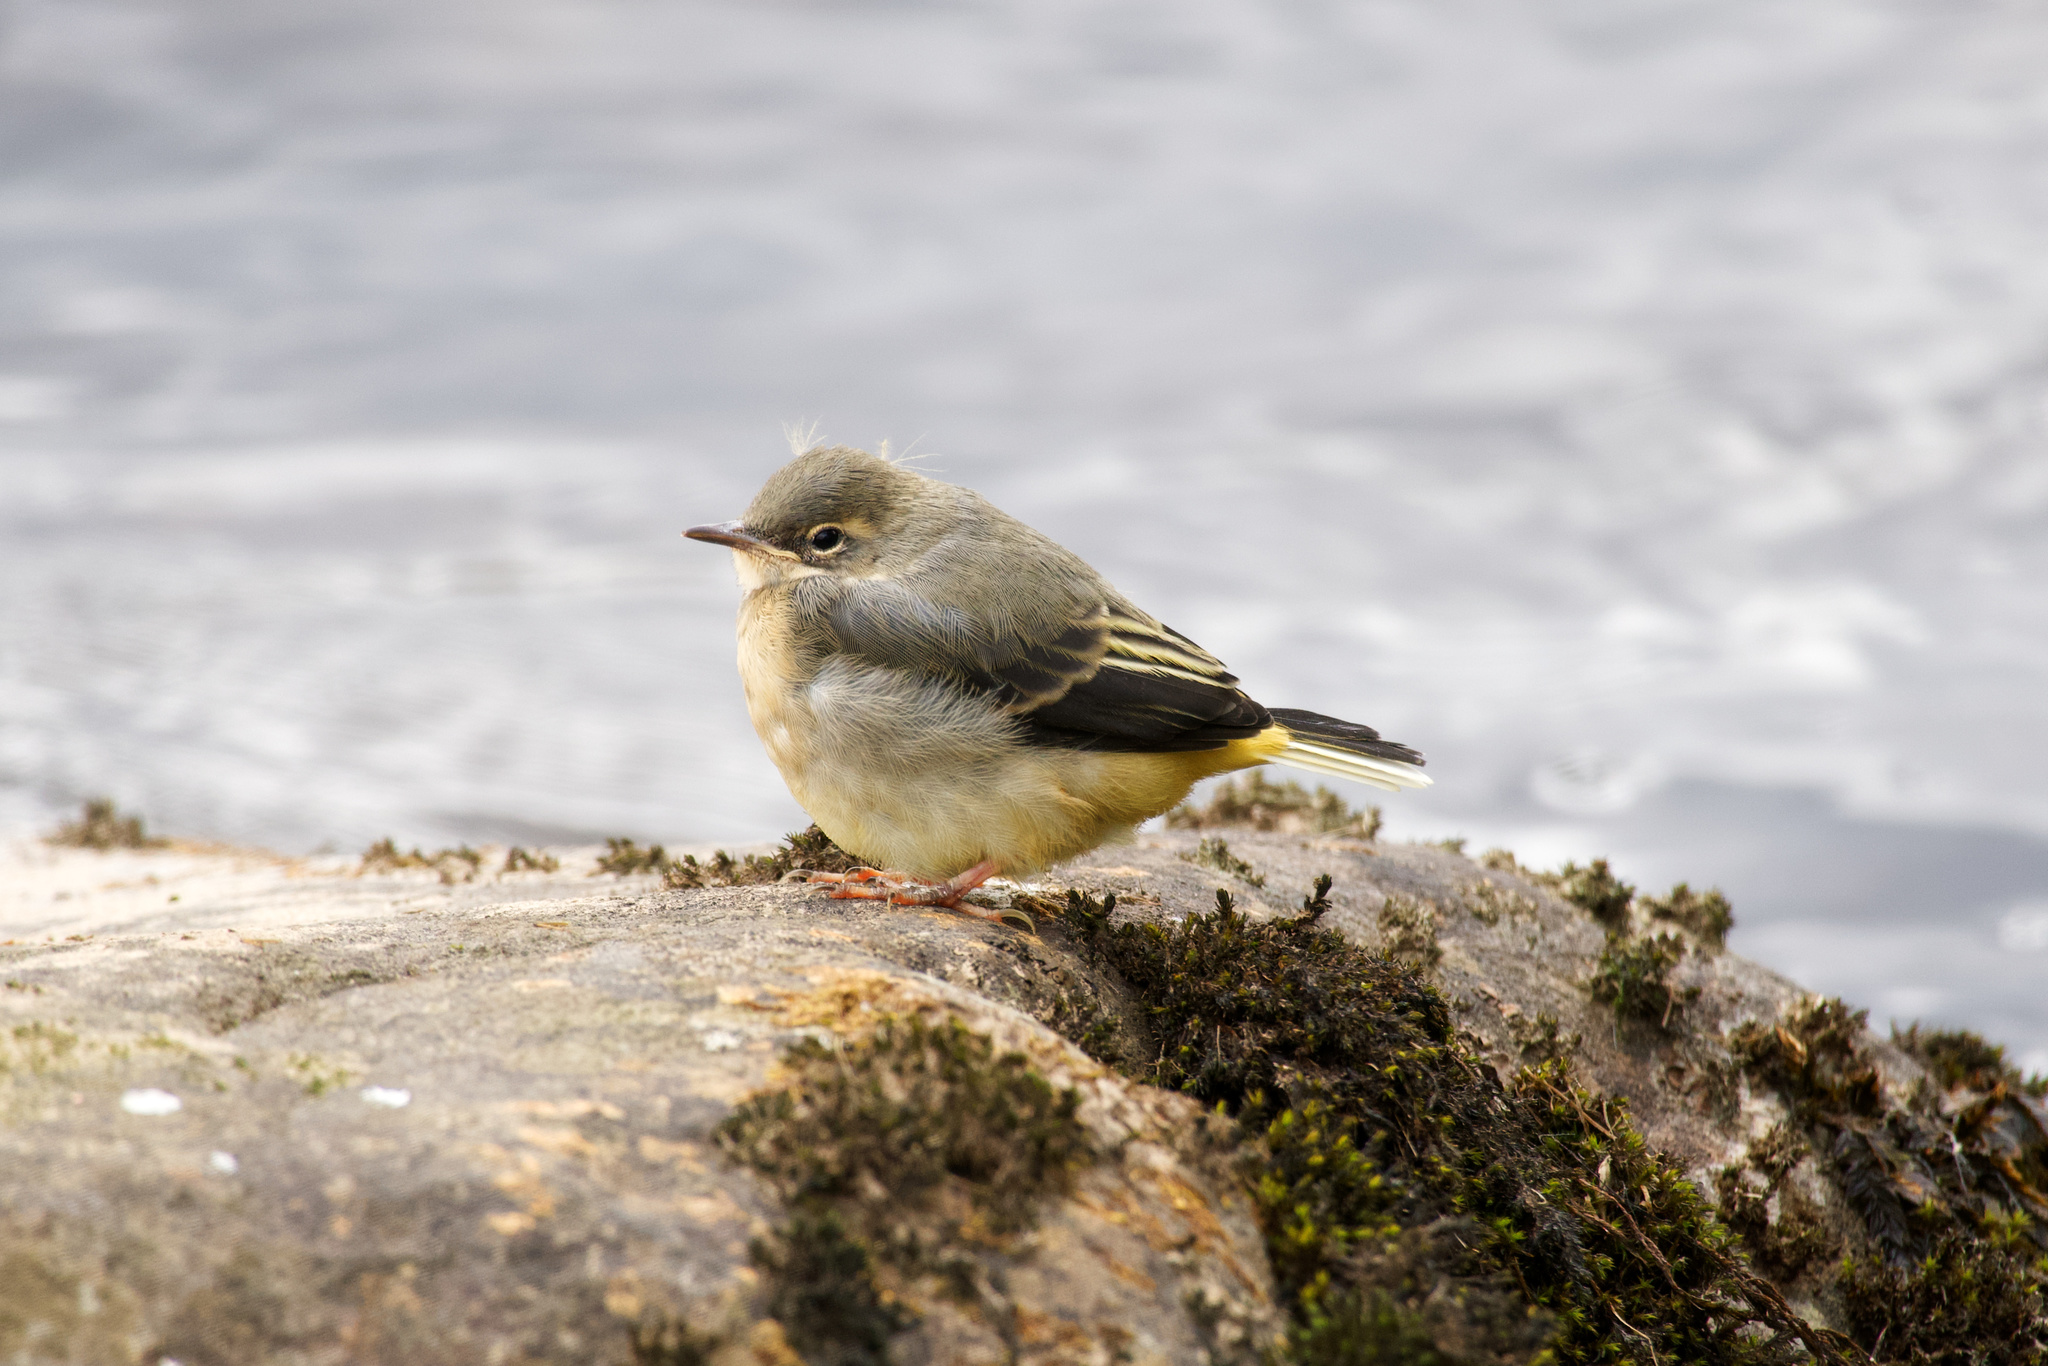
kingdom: Animalia
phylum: Chordata
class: Aves
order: Passeriformes
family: Motacillidae
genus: Motacilla
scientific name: Motacilla cinerea
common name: Grey wagtail
